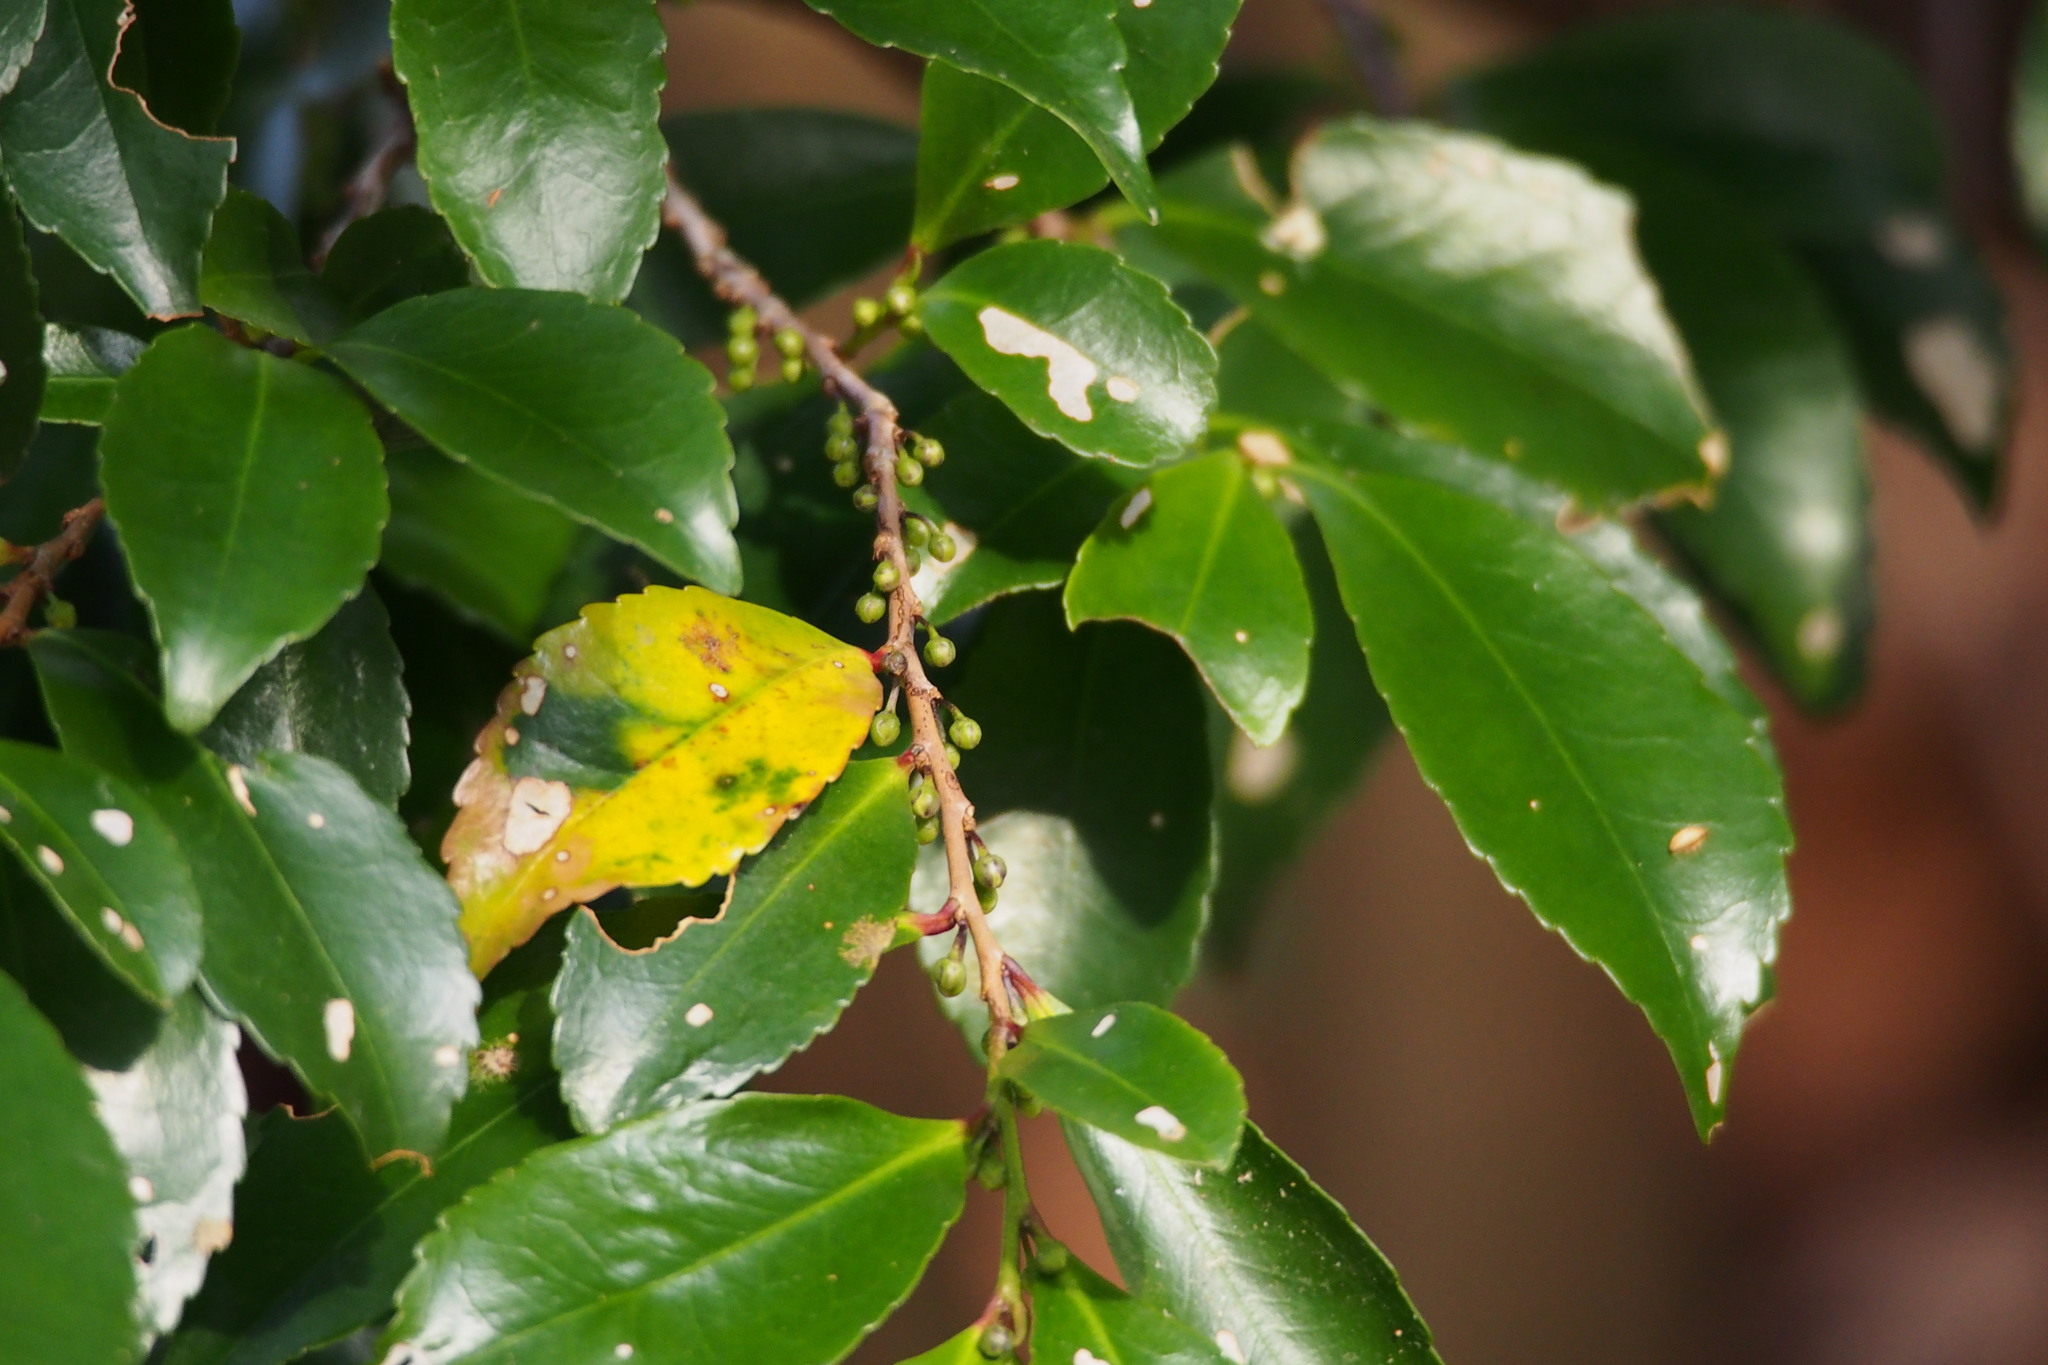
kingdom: Plantae
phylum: Tracheophyta
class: Magnoliopsida
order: Ericales
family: Pentaphylacaceae
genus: Eurya
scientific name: Eurya japonica
